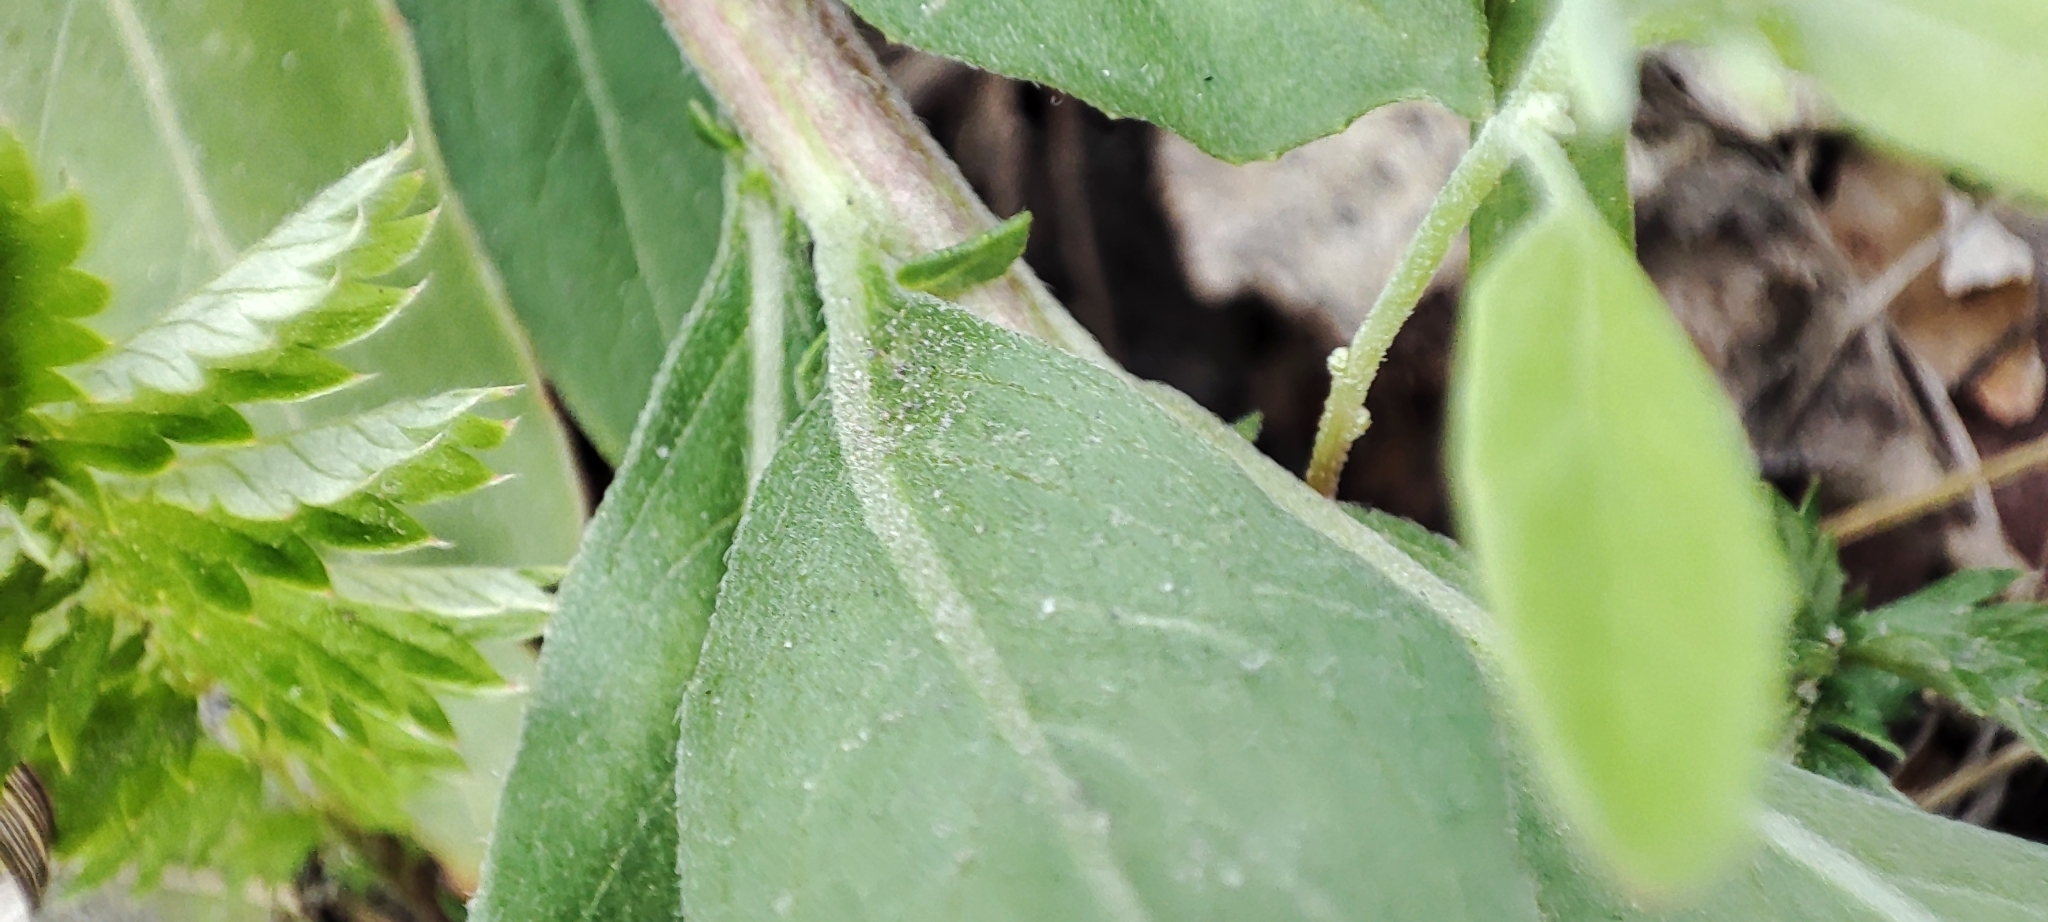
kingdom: Plantae
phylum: Tracheophyta
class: Magnoliopsida
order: Myrtales
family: Onagraceae
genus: Oenothera
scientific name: Oenothera villosa
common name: Hairy evening-primrose
